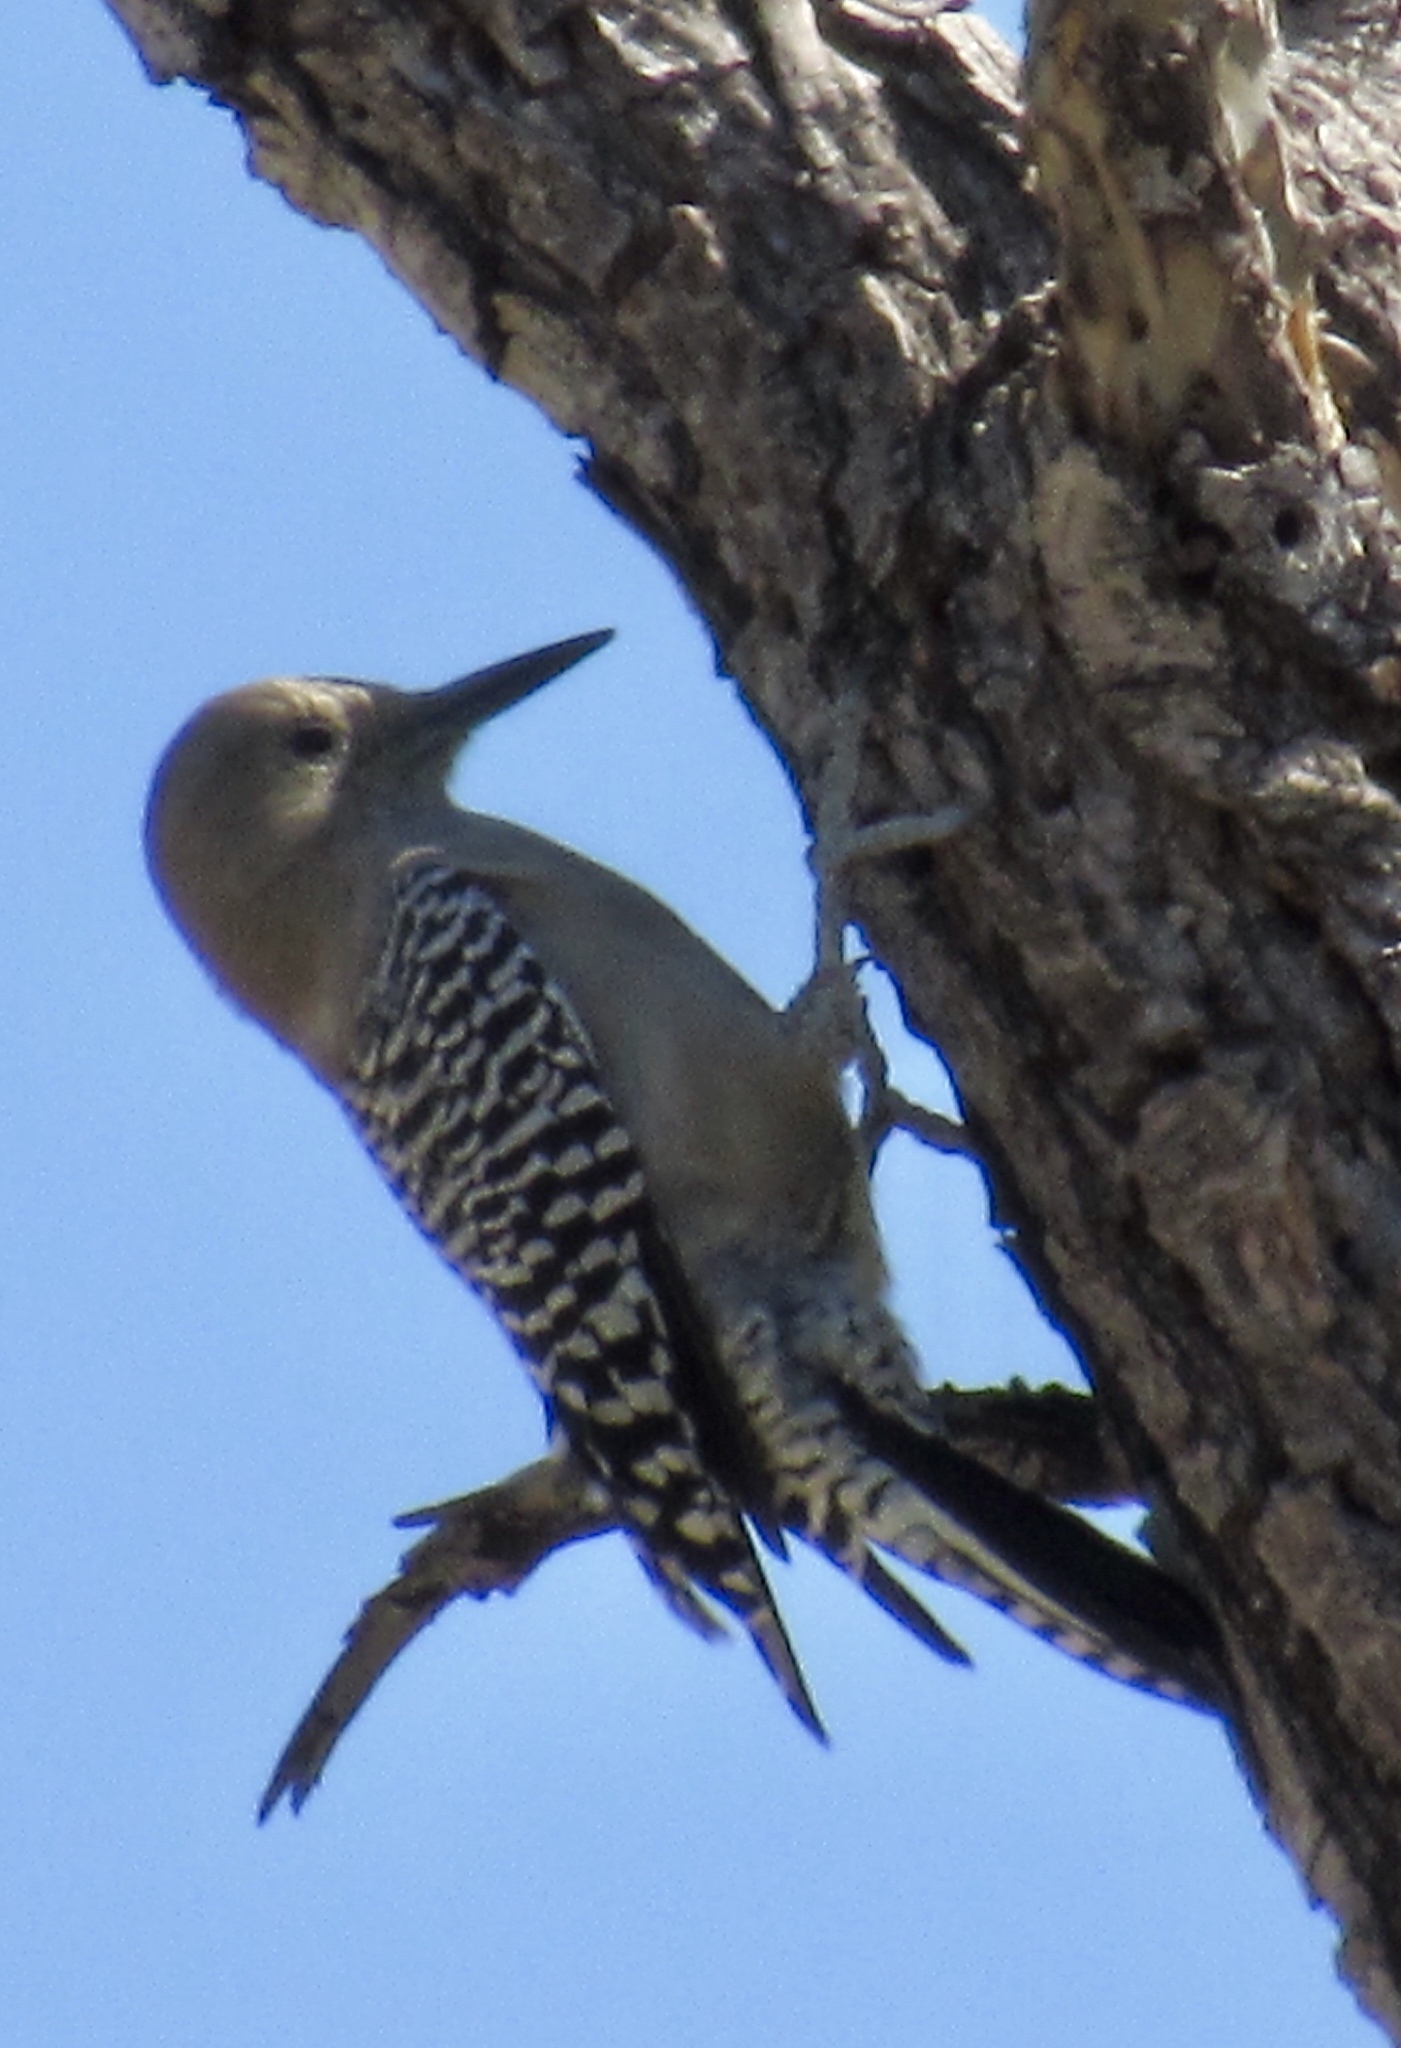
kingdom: Animalia
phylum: Chordata
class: Aves
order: Piciformes
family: Picidae
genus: Melanerpes
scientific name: Melanerpes uropygialis
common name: Gila woodpecker
